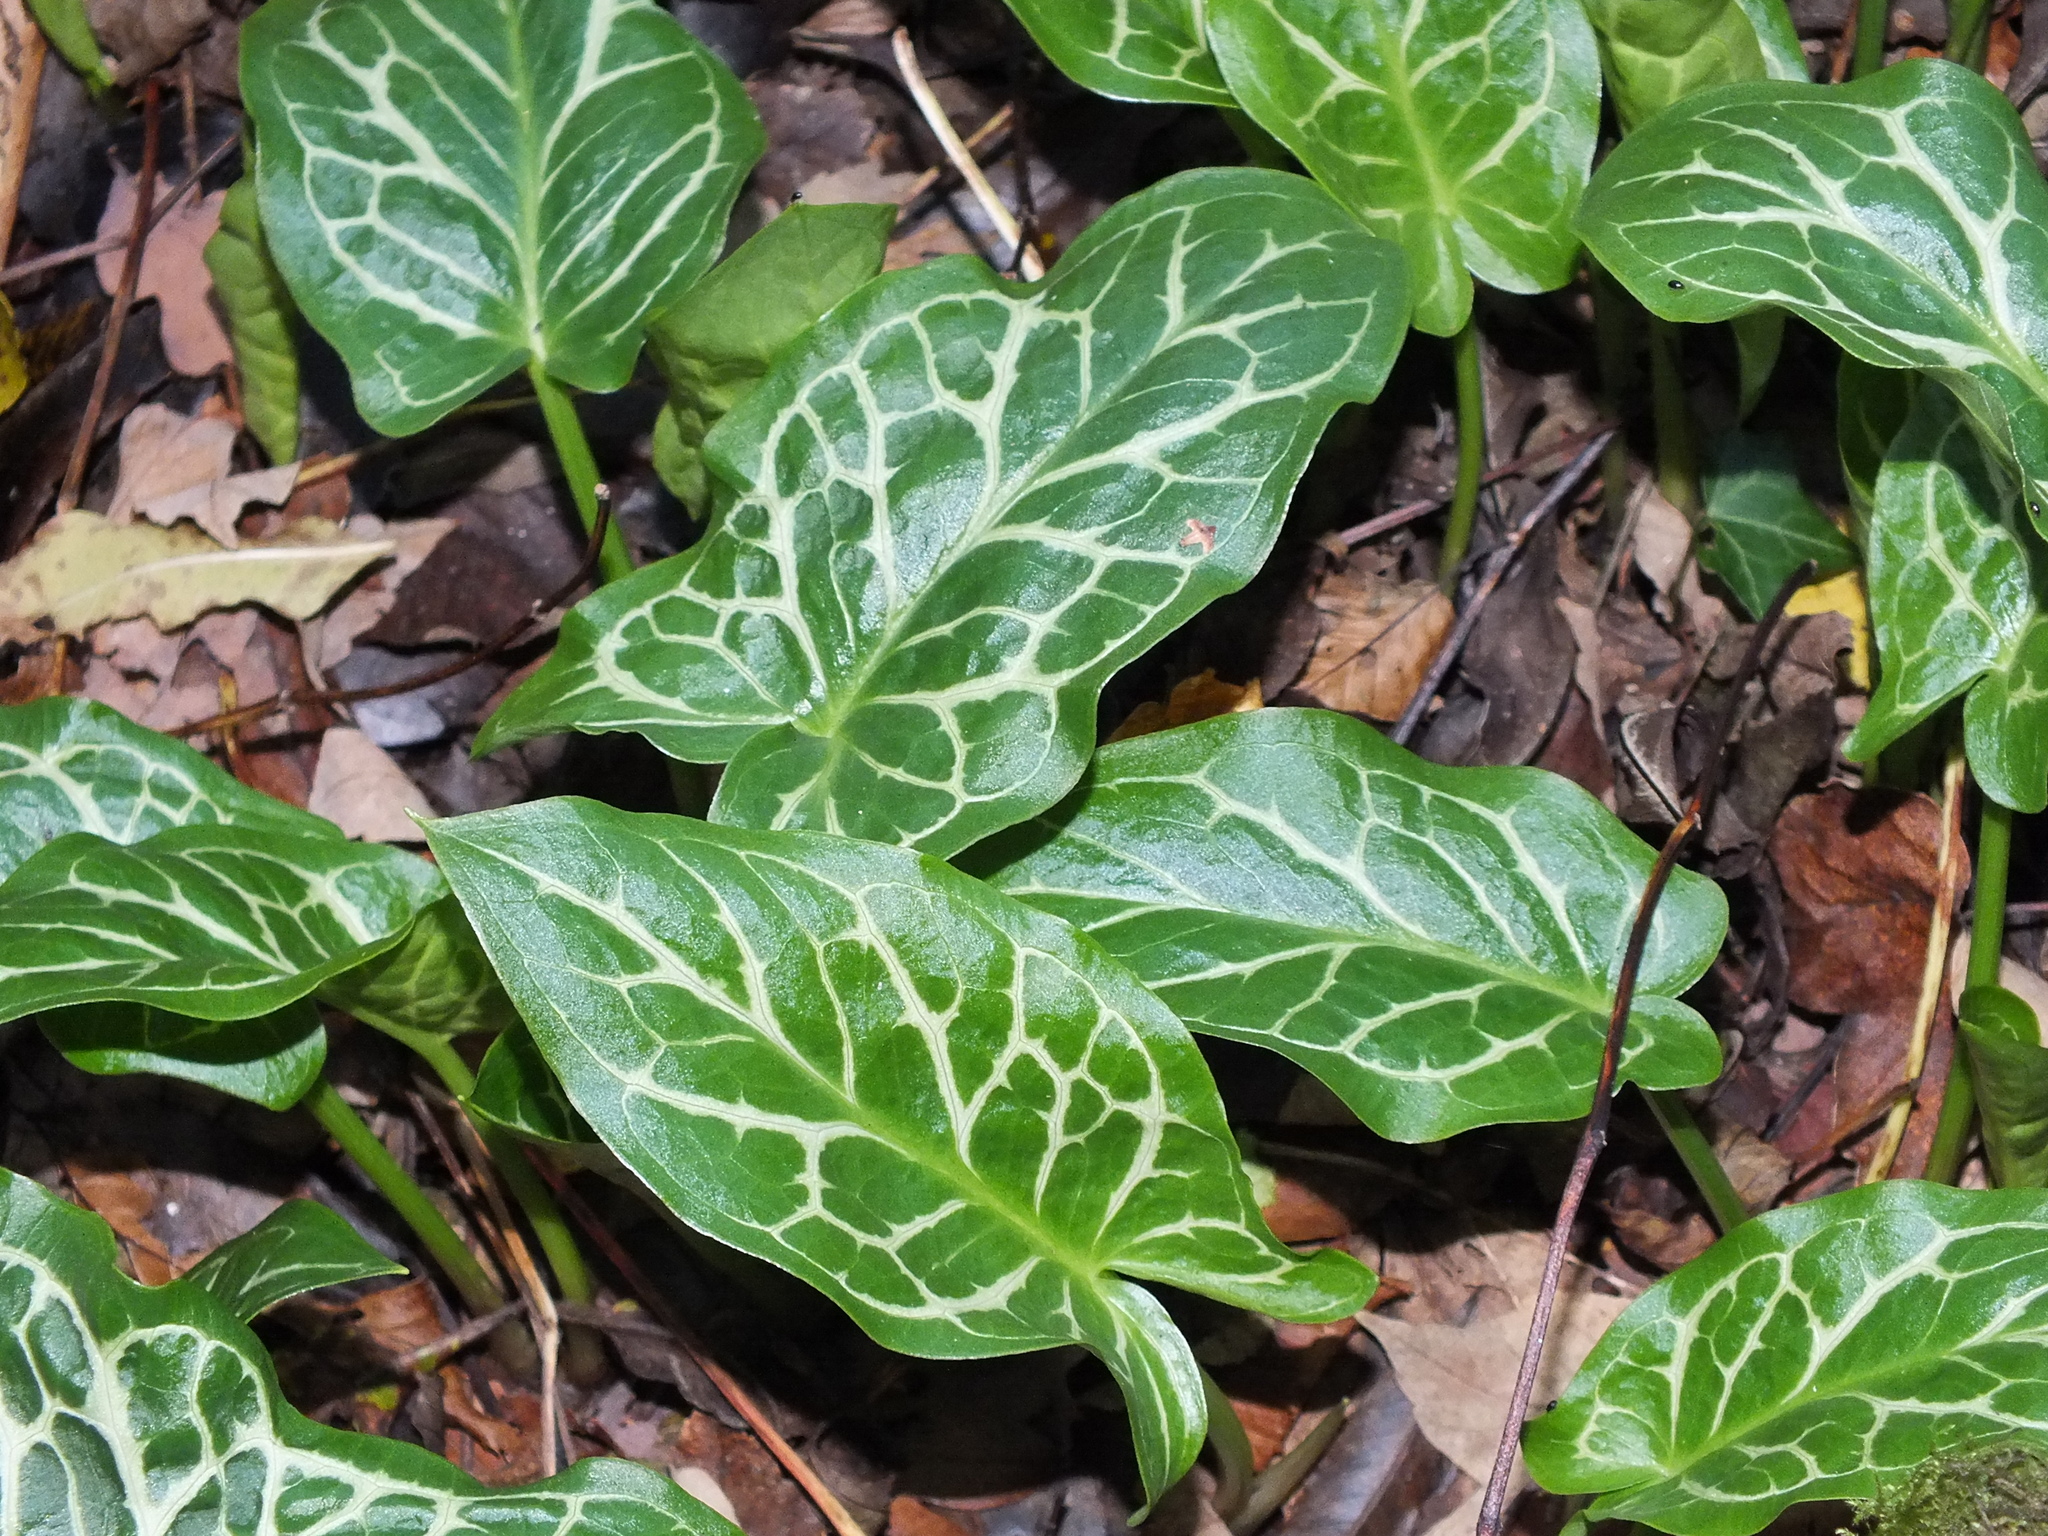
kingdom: Plantae
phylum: Tracheophyta
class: Liliopsida
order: Alismatales
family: Araceae
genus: Arum
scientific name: Arum italicum
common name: Italian lords-and-ladies
